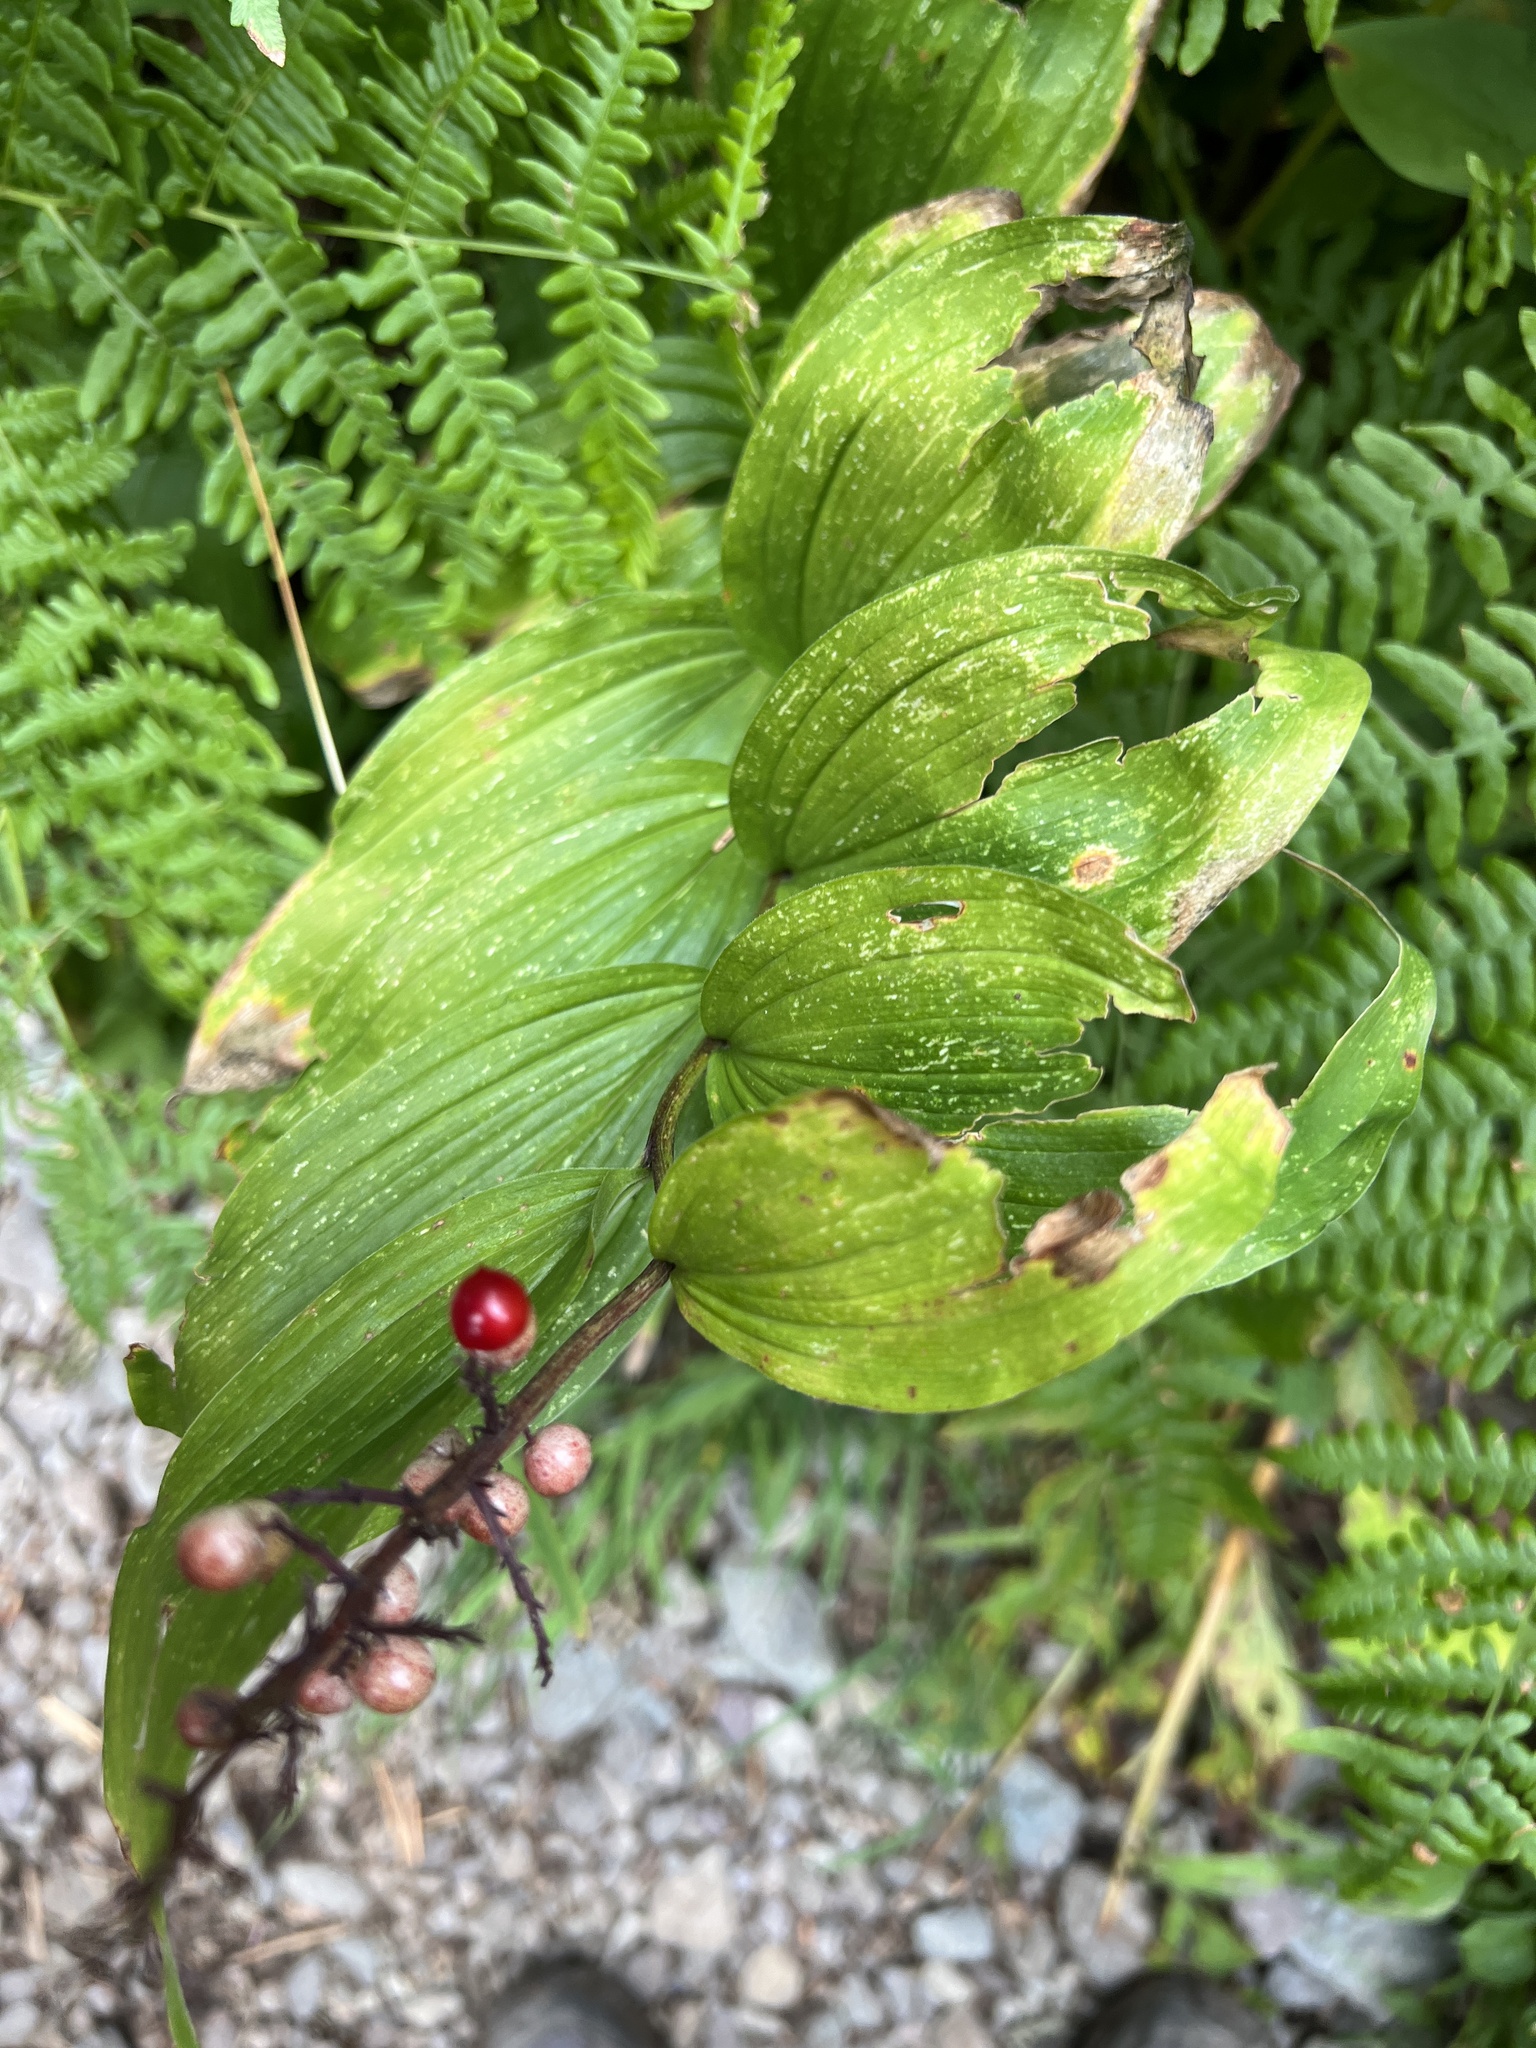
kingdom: Plantae
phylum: Tracheophyta
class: Liliopsida
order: Asparagales
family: Asparagaceae
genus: Maianthemum
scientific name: Maianthemum racemosum
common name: False spikenard
